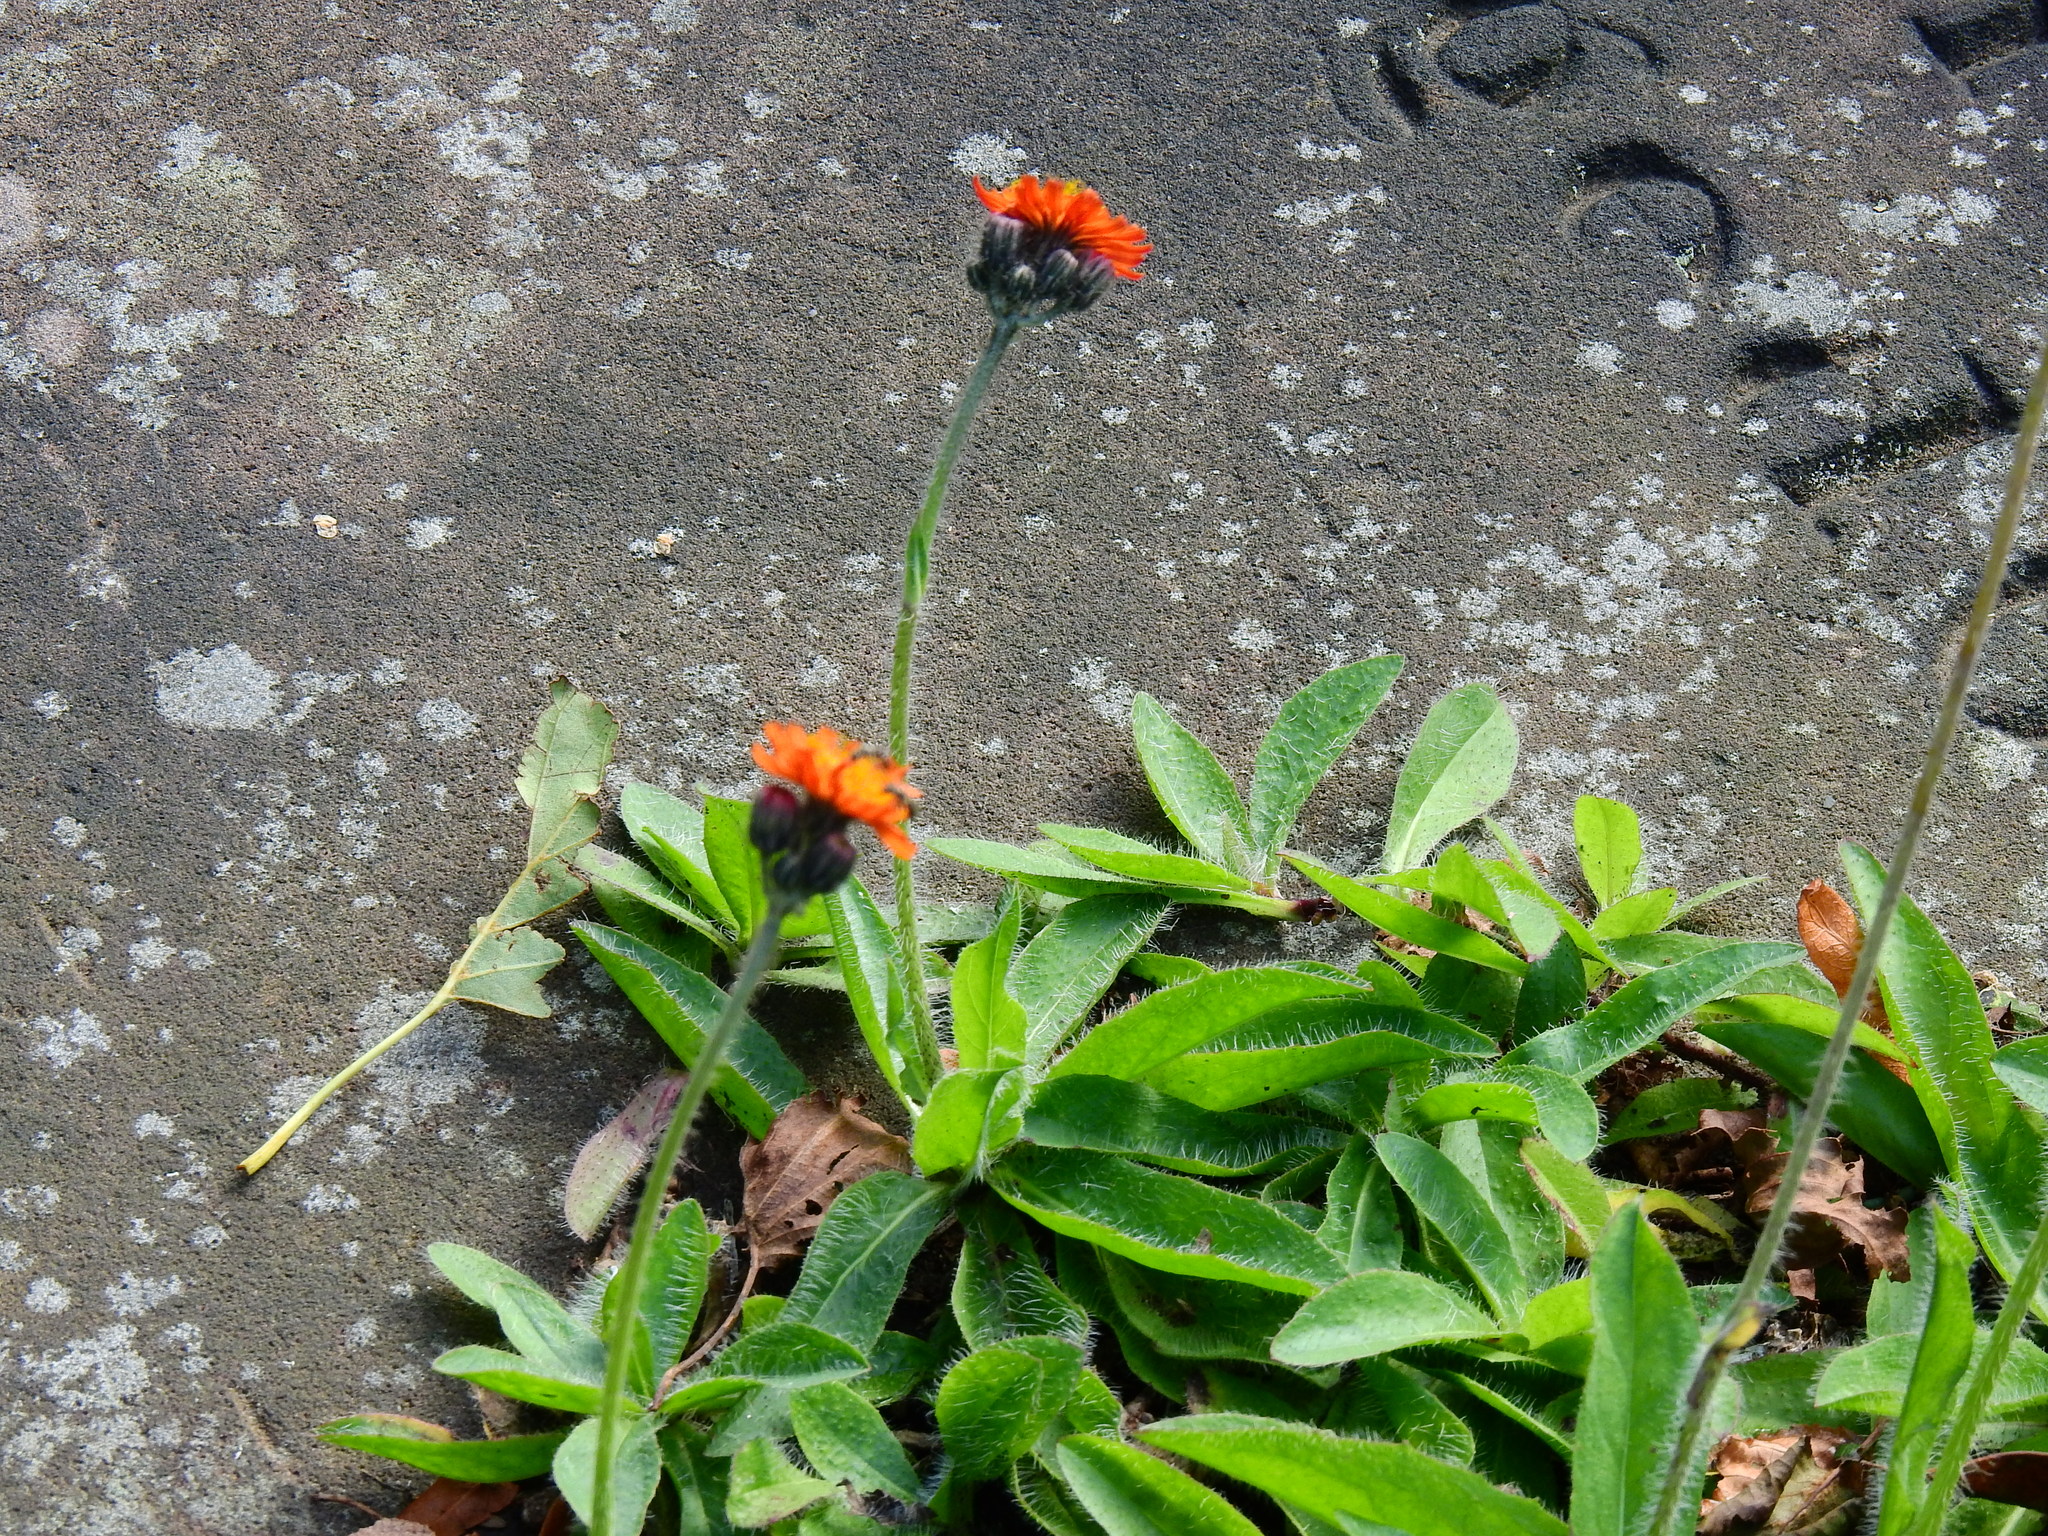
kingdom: Plantae
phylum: Tracheophyta
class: Magnoliopsida
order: Asterales
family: Asteraceae
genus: Pilosella
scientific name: Pilosella aurantiaca
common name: Fox-and-cubs
